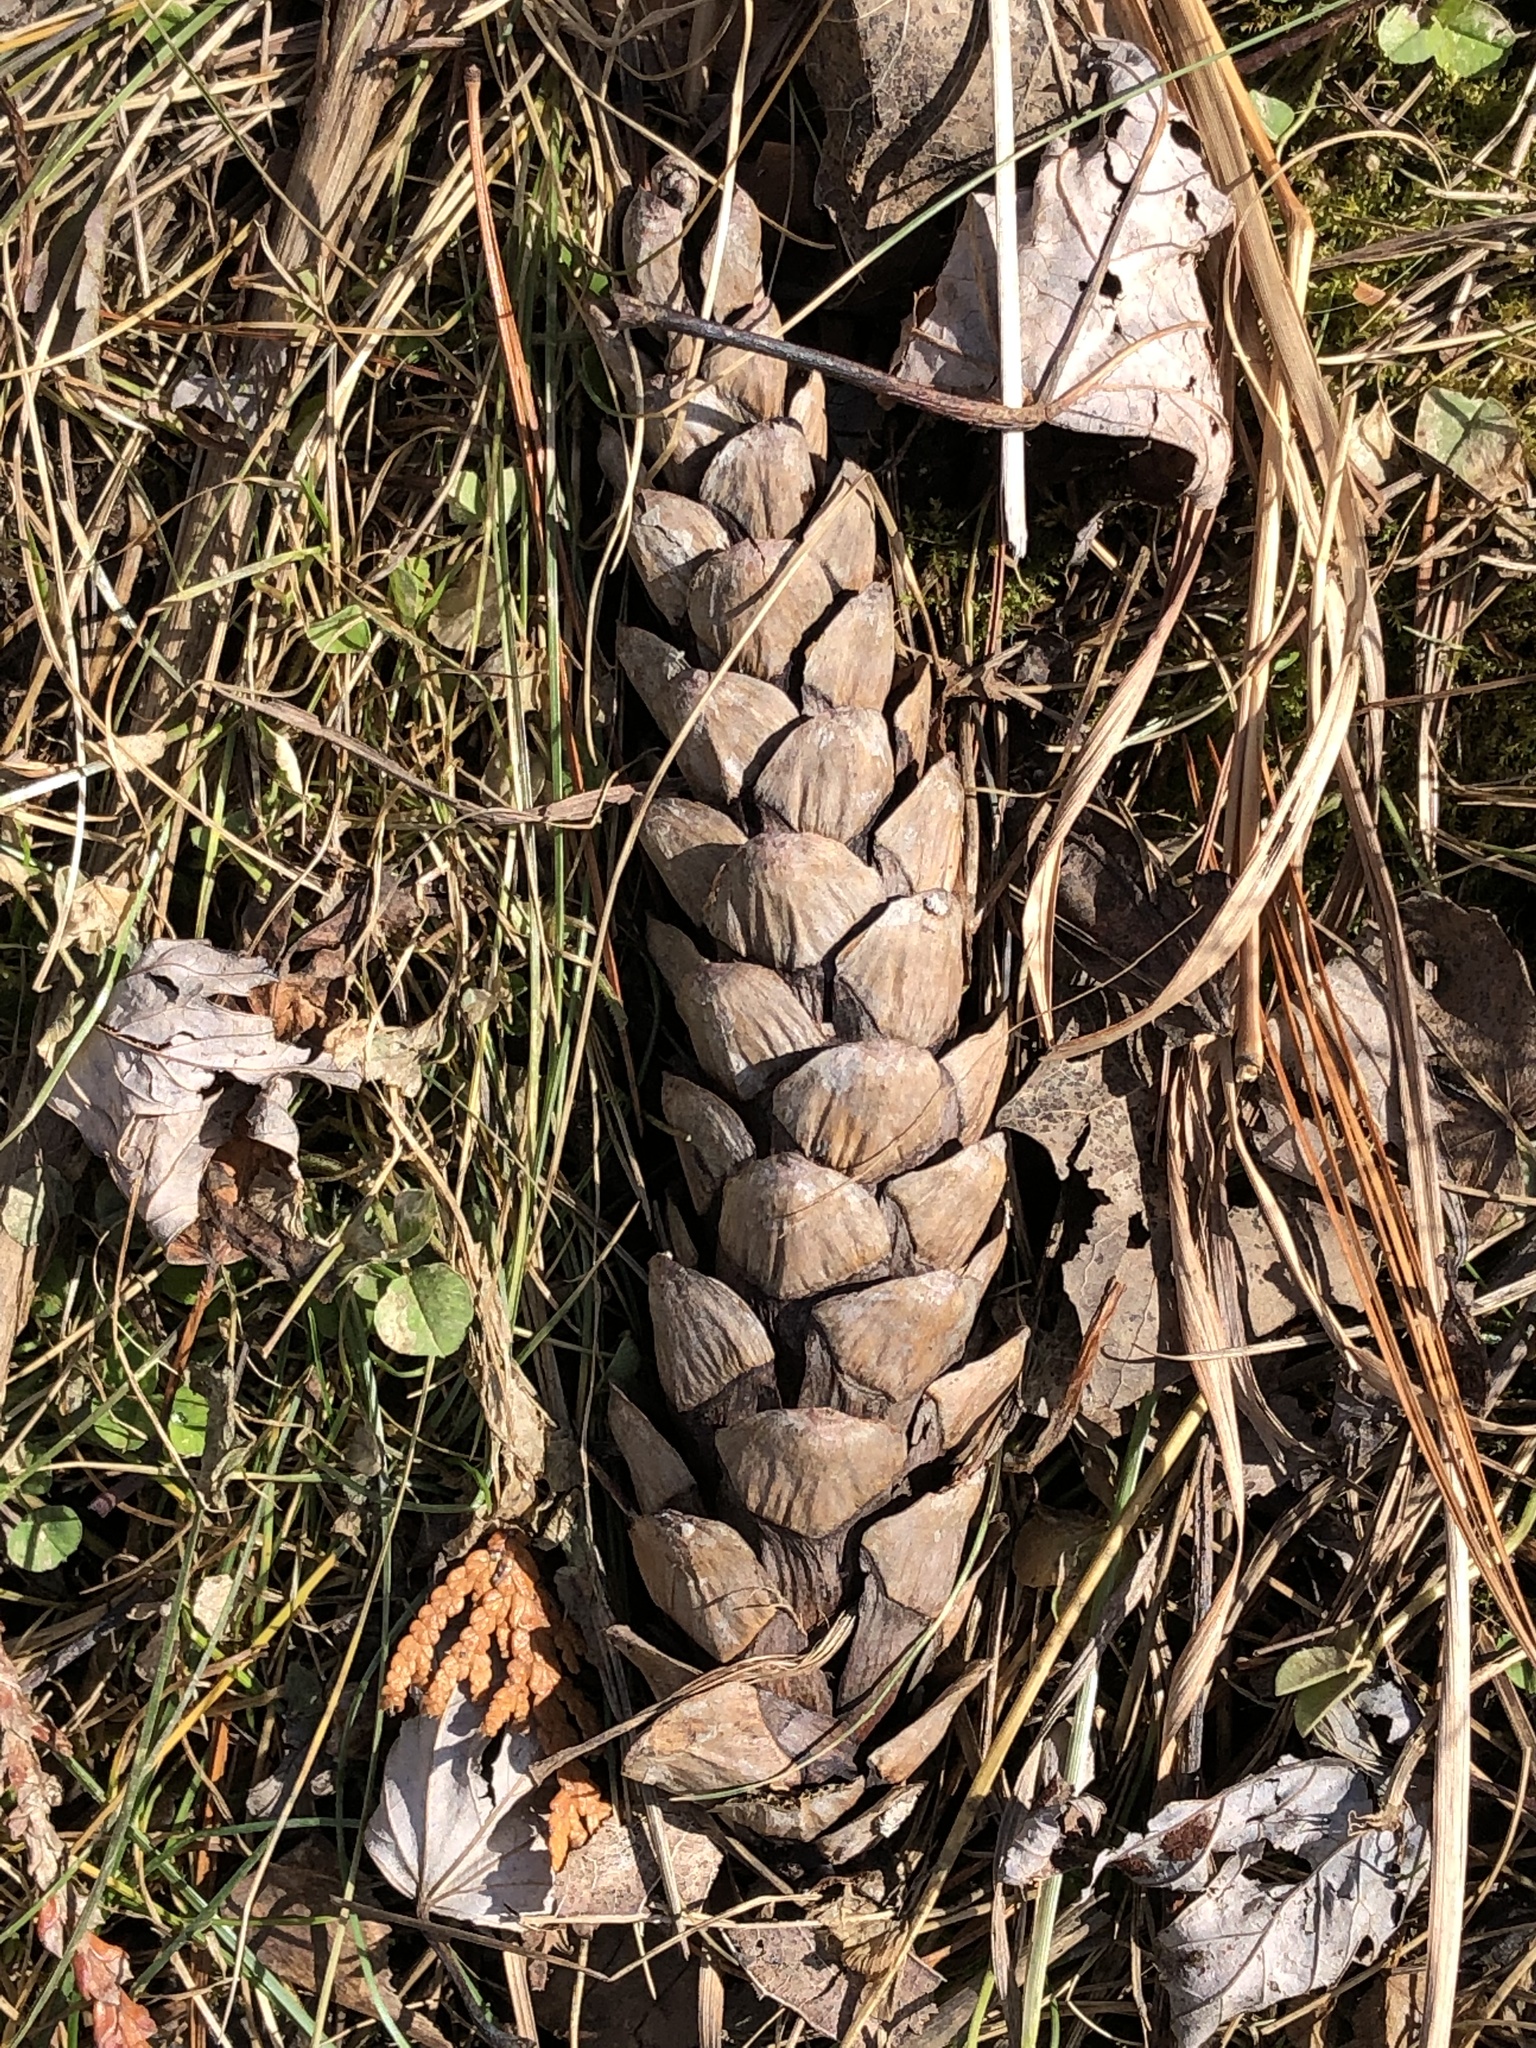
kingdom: Plantae
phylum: Tracheophyta
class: Pinopsida
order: Pinales
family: Pinaceae
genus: Pinus
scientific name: Pinus strobus
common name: Weymouth pine
